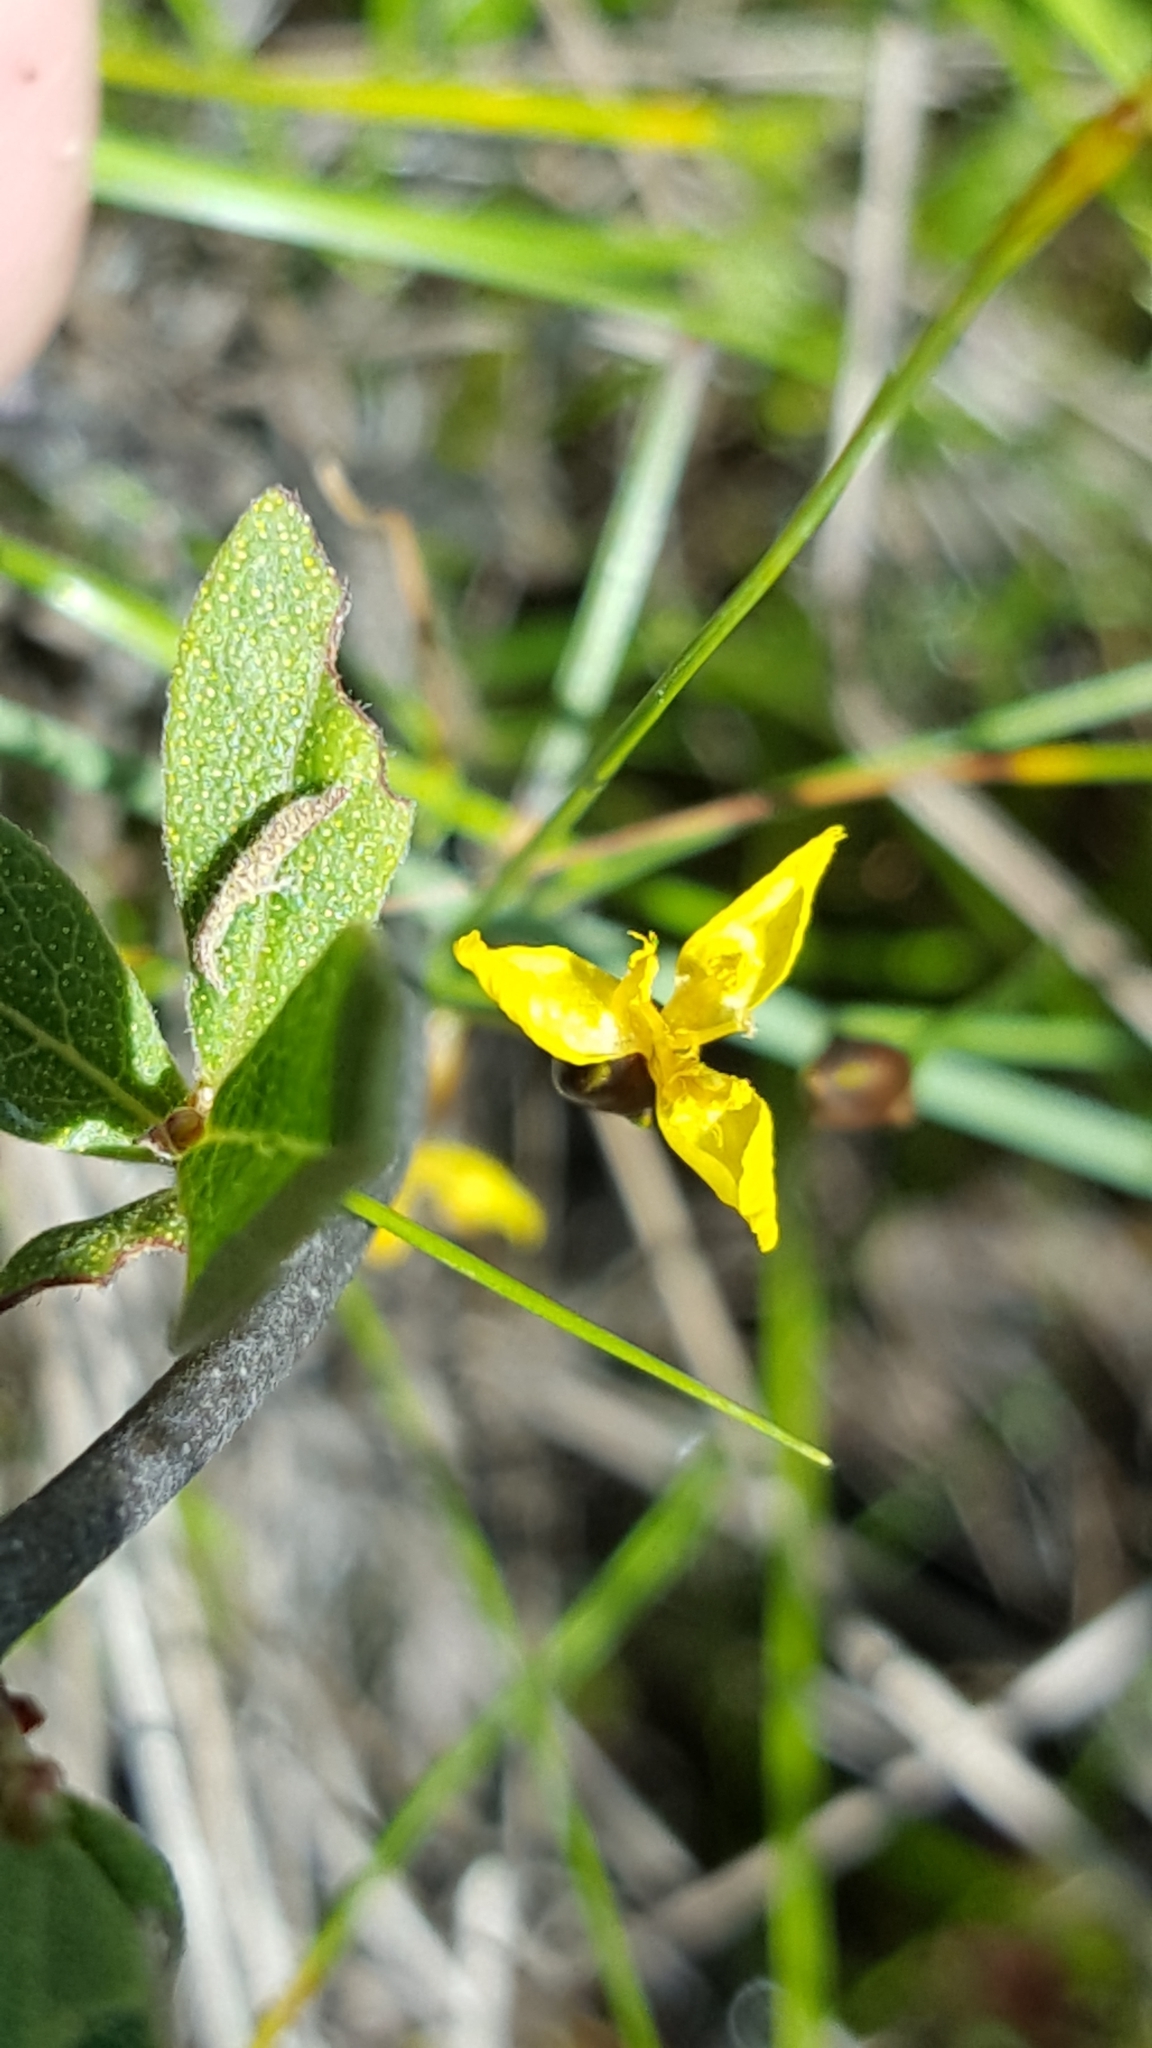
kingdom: Plantae
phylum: Tracheophyta
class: Liliopsida
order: Poales
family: Xyridaceae
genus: Xyris
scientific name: Xyris montana
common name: Northern yellow-eyed-grass
